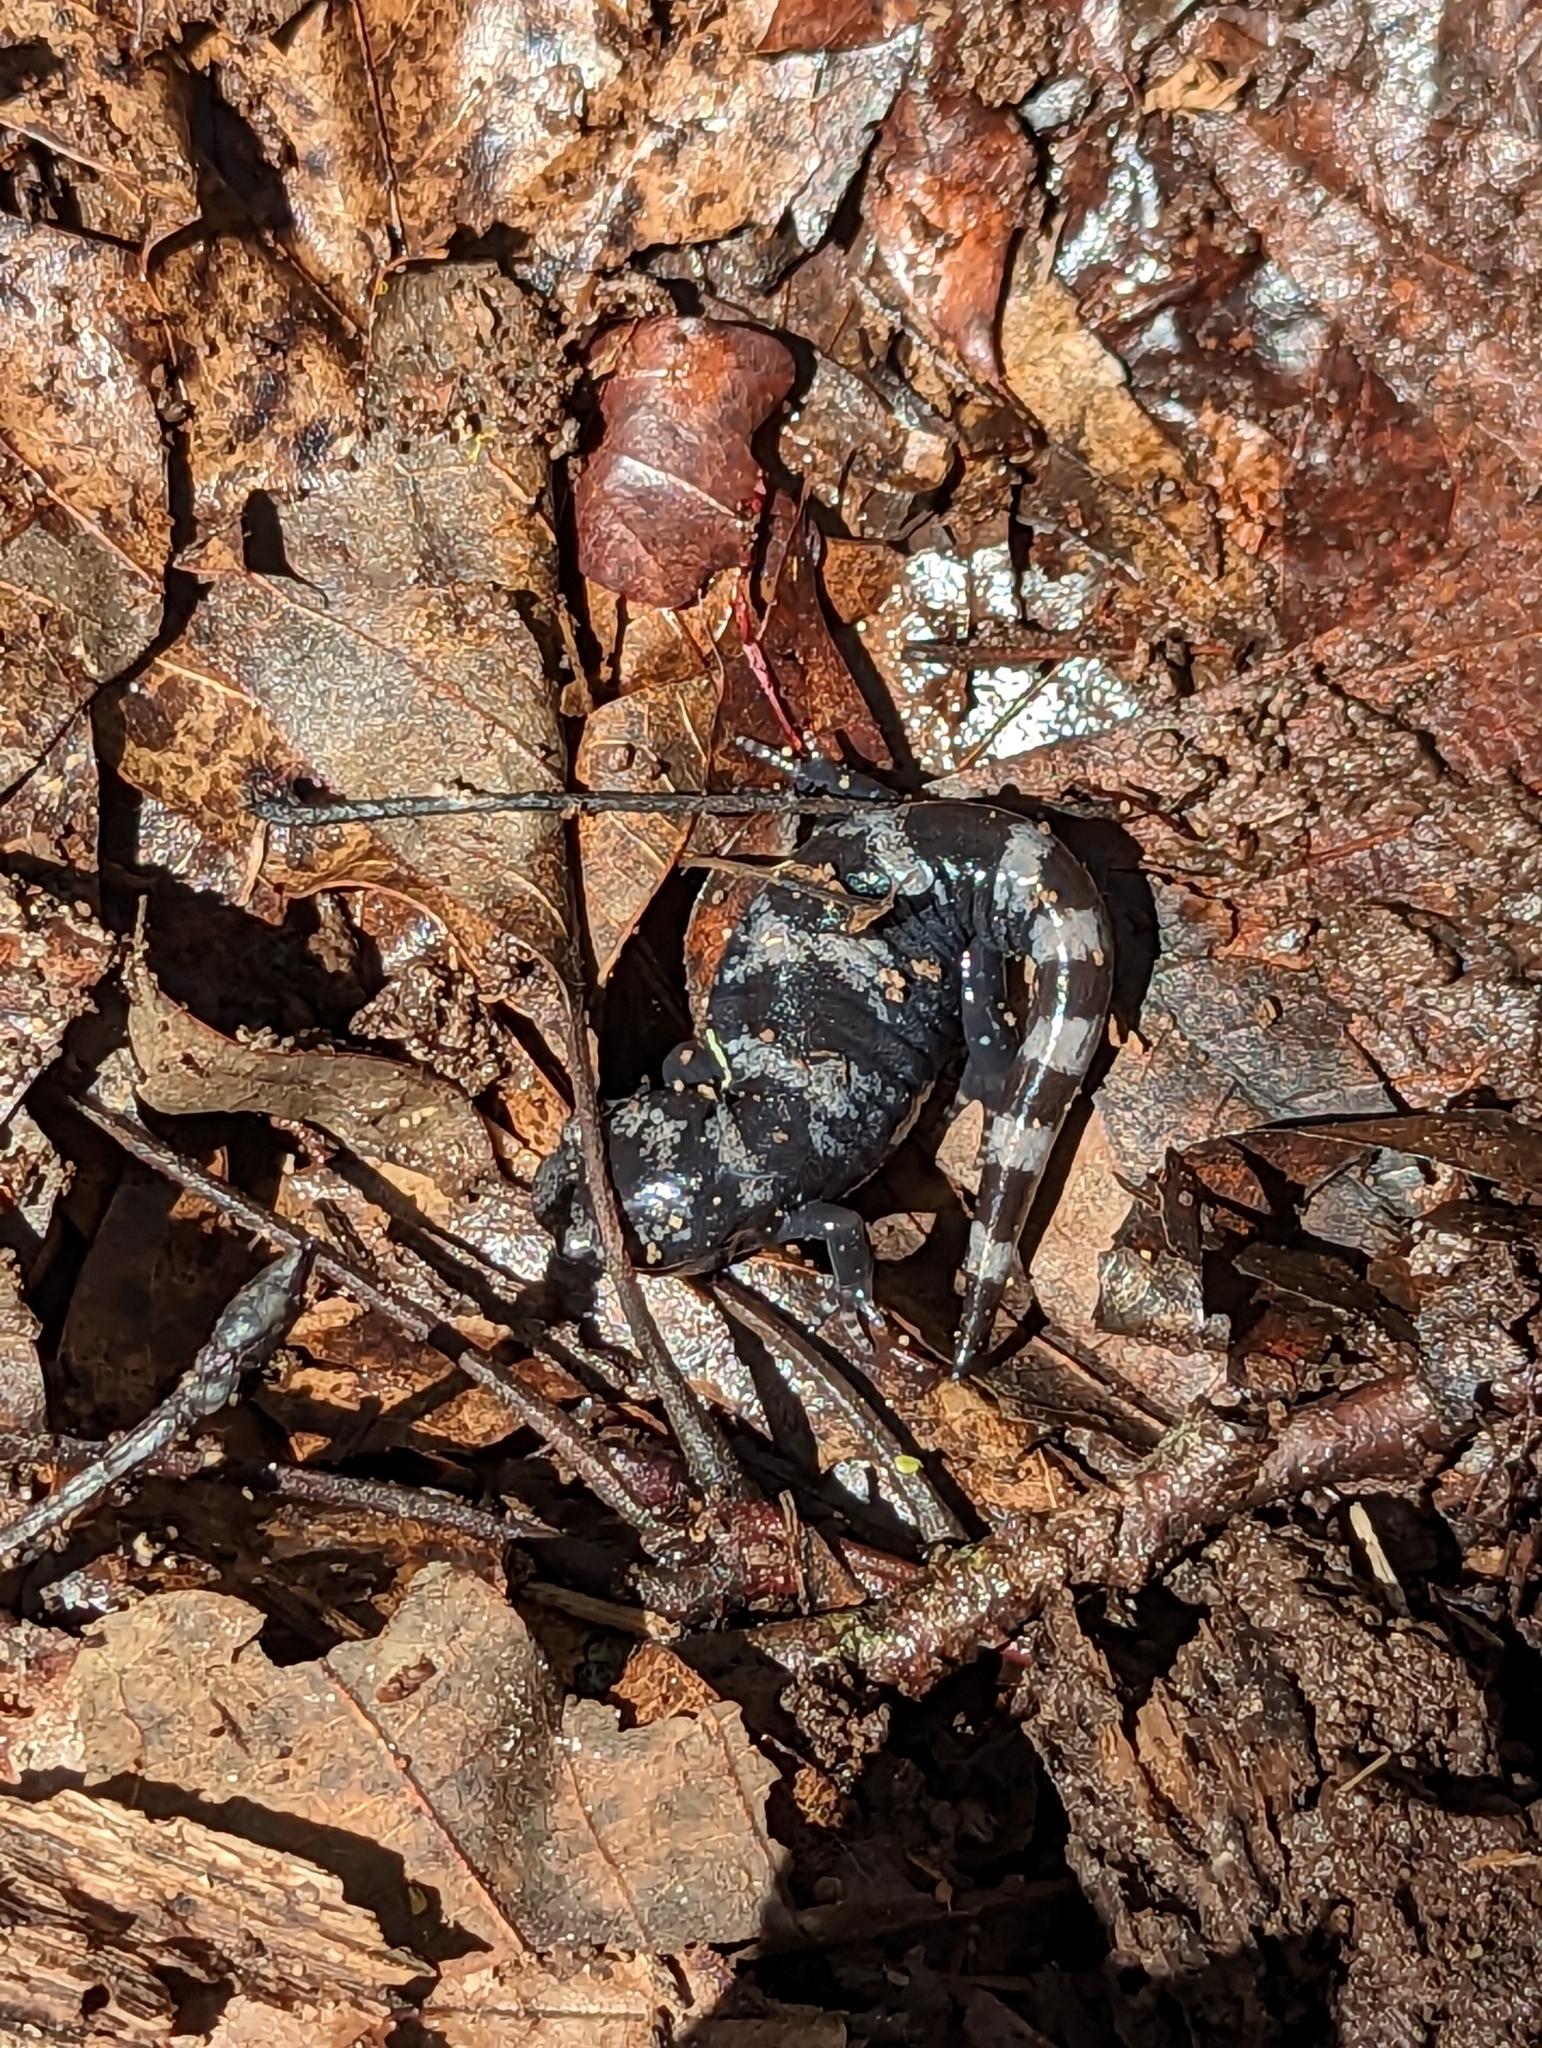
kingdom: Animalia
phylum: Chordata
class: Amphibia
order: Caudata
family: Ambystomatidae
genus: Ambystoma
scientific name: Ambystoma opacum
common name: Marbled salamander
